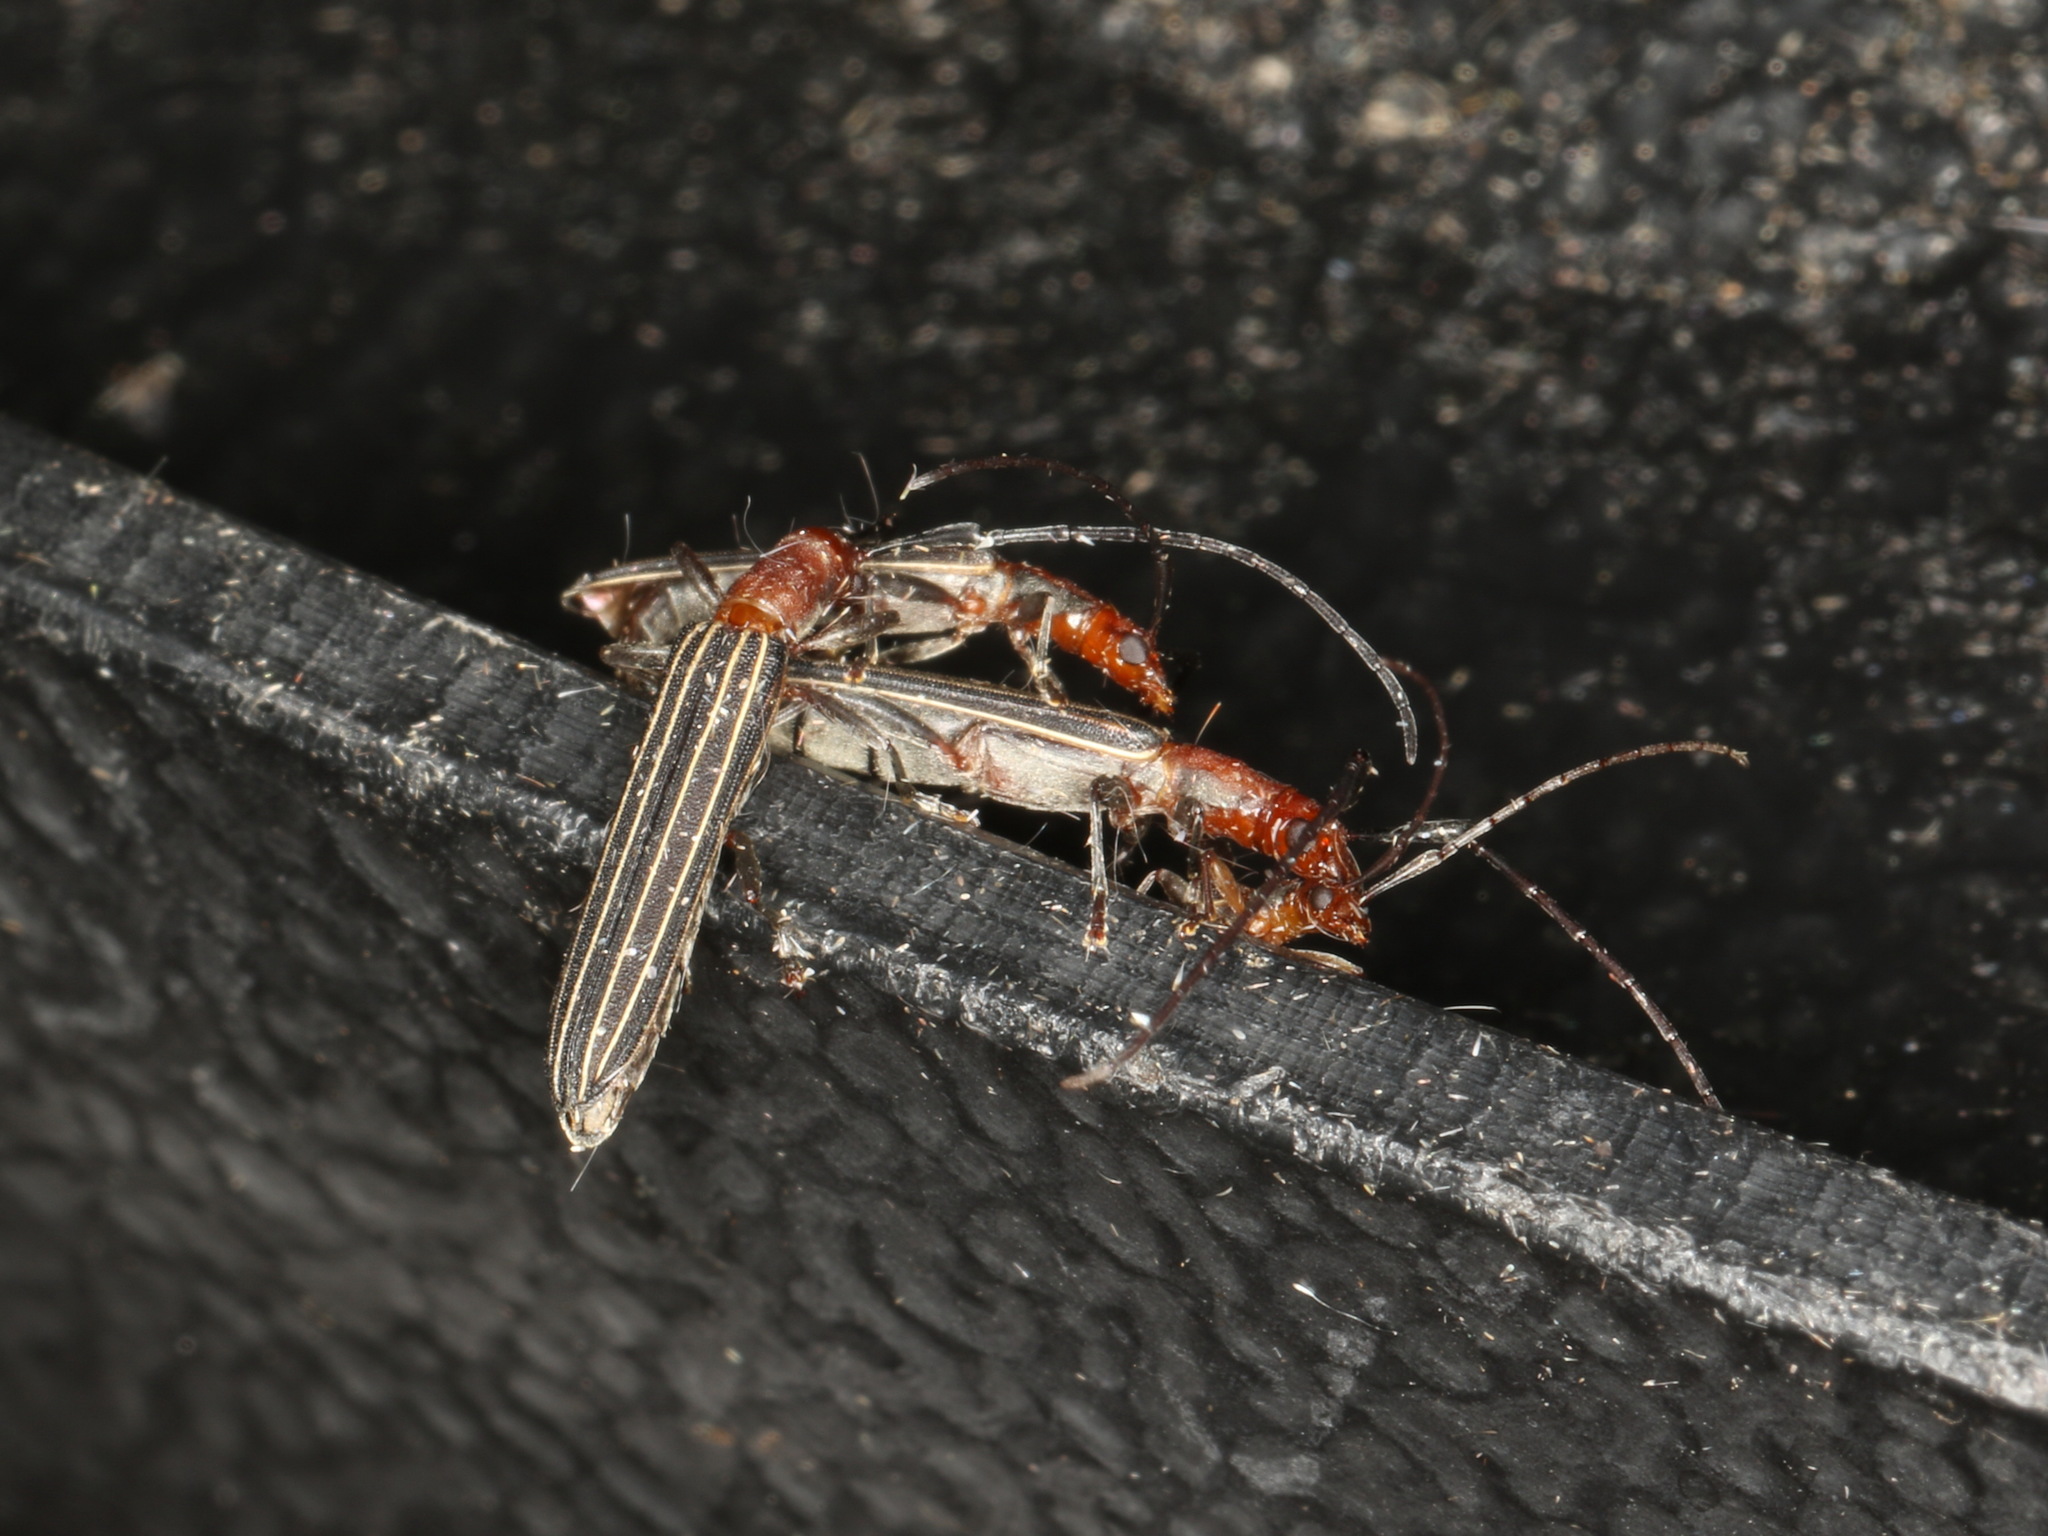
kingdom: Animalia
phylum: Arthropoda
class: Insecta
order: Coleoptera
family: Cerambycidae
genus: Syllitus
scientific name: Syllitus rectus
